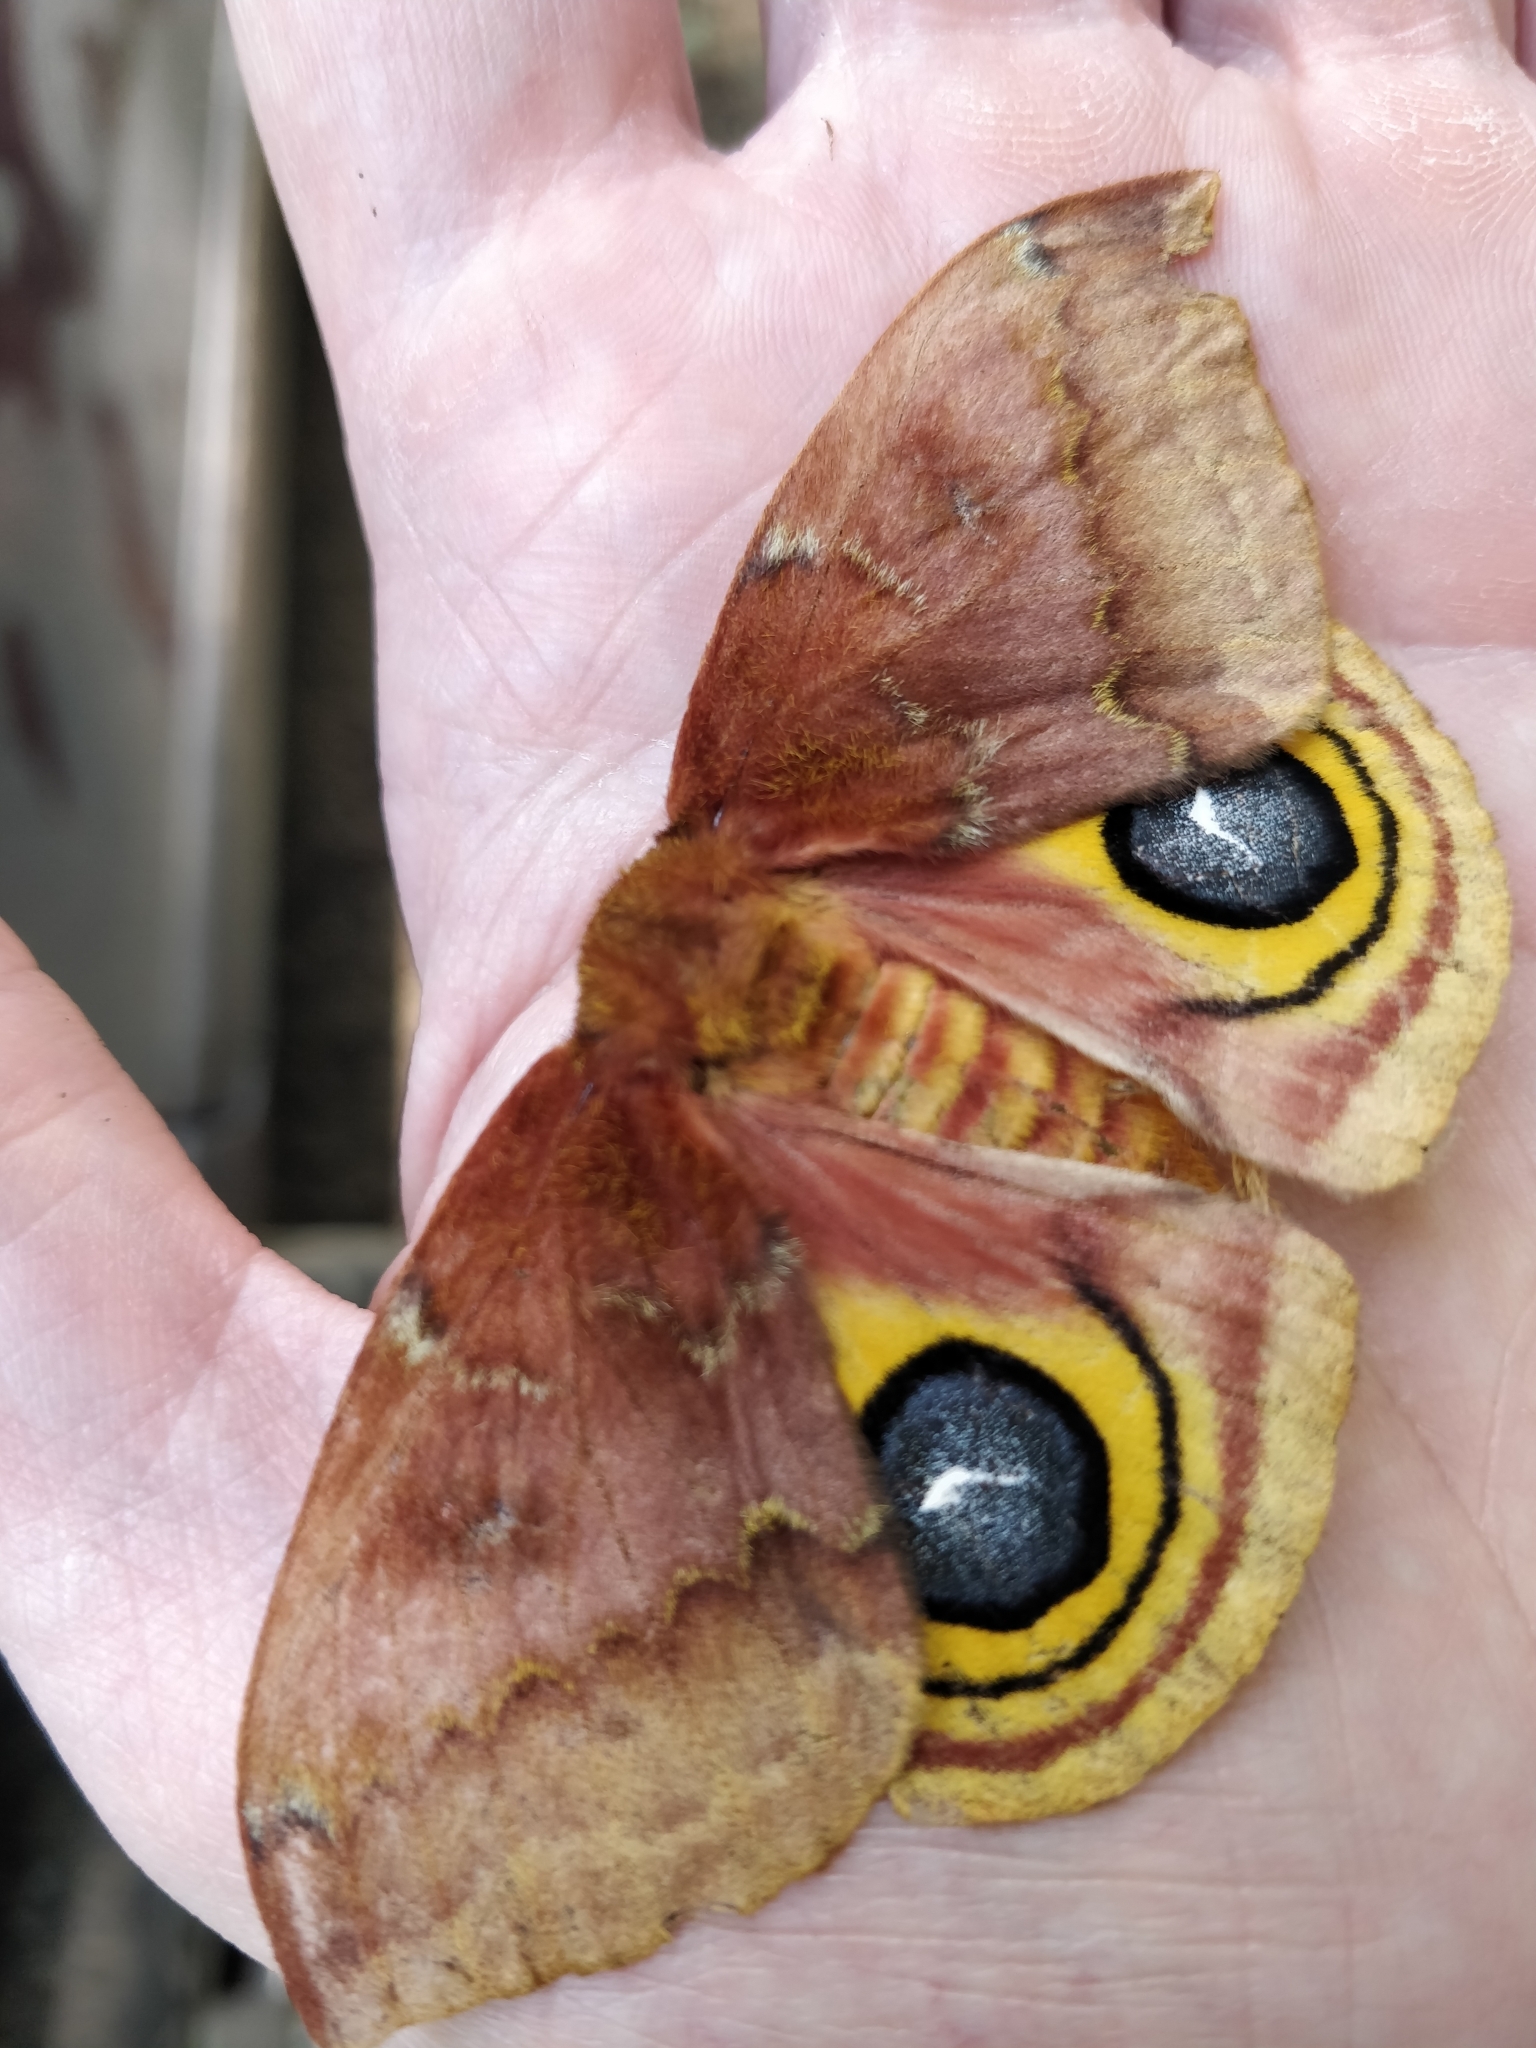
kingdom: Animalia
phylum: Arthropoda
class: Insecta
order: Lepidoptera
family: Saturniidae
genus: Automeris
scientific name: Automeris io
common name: Io moth
